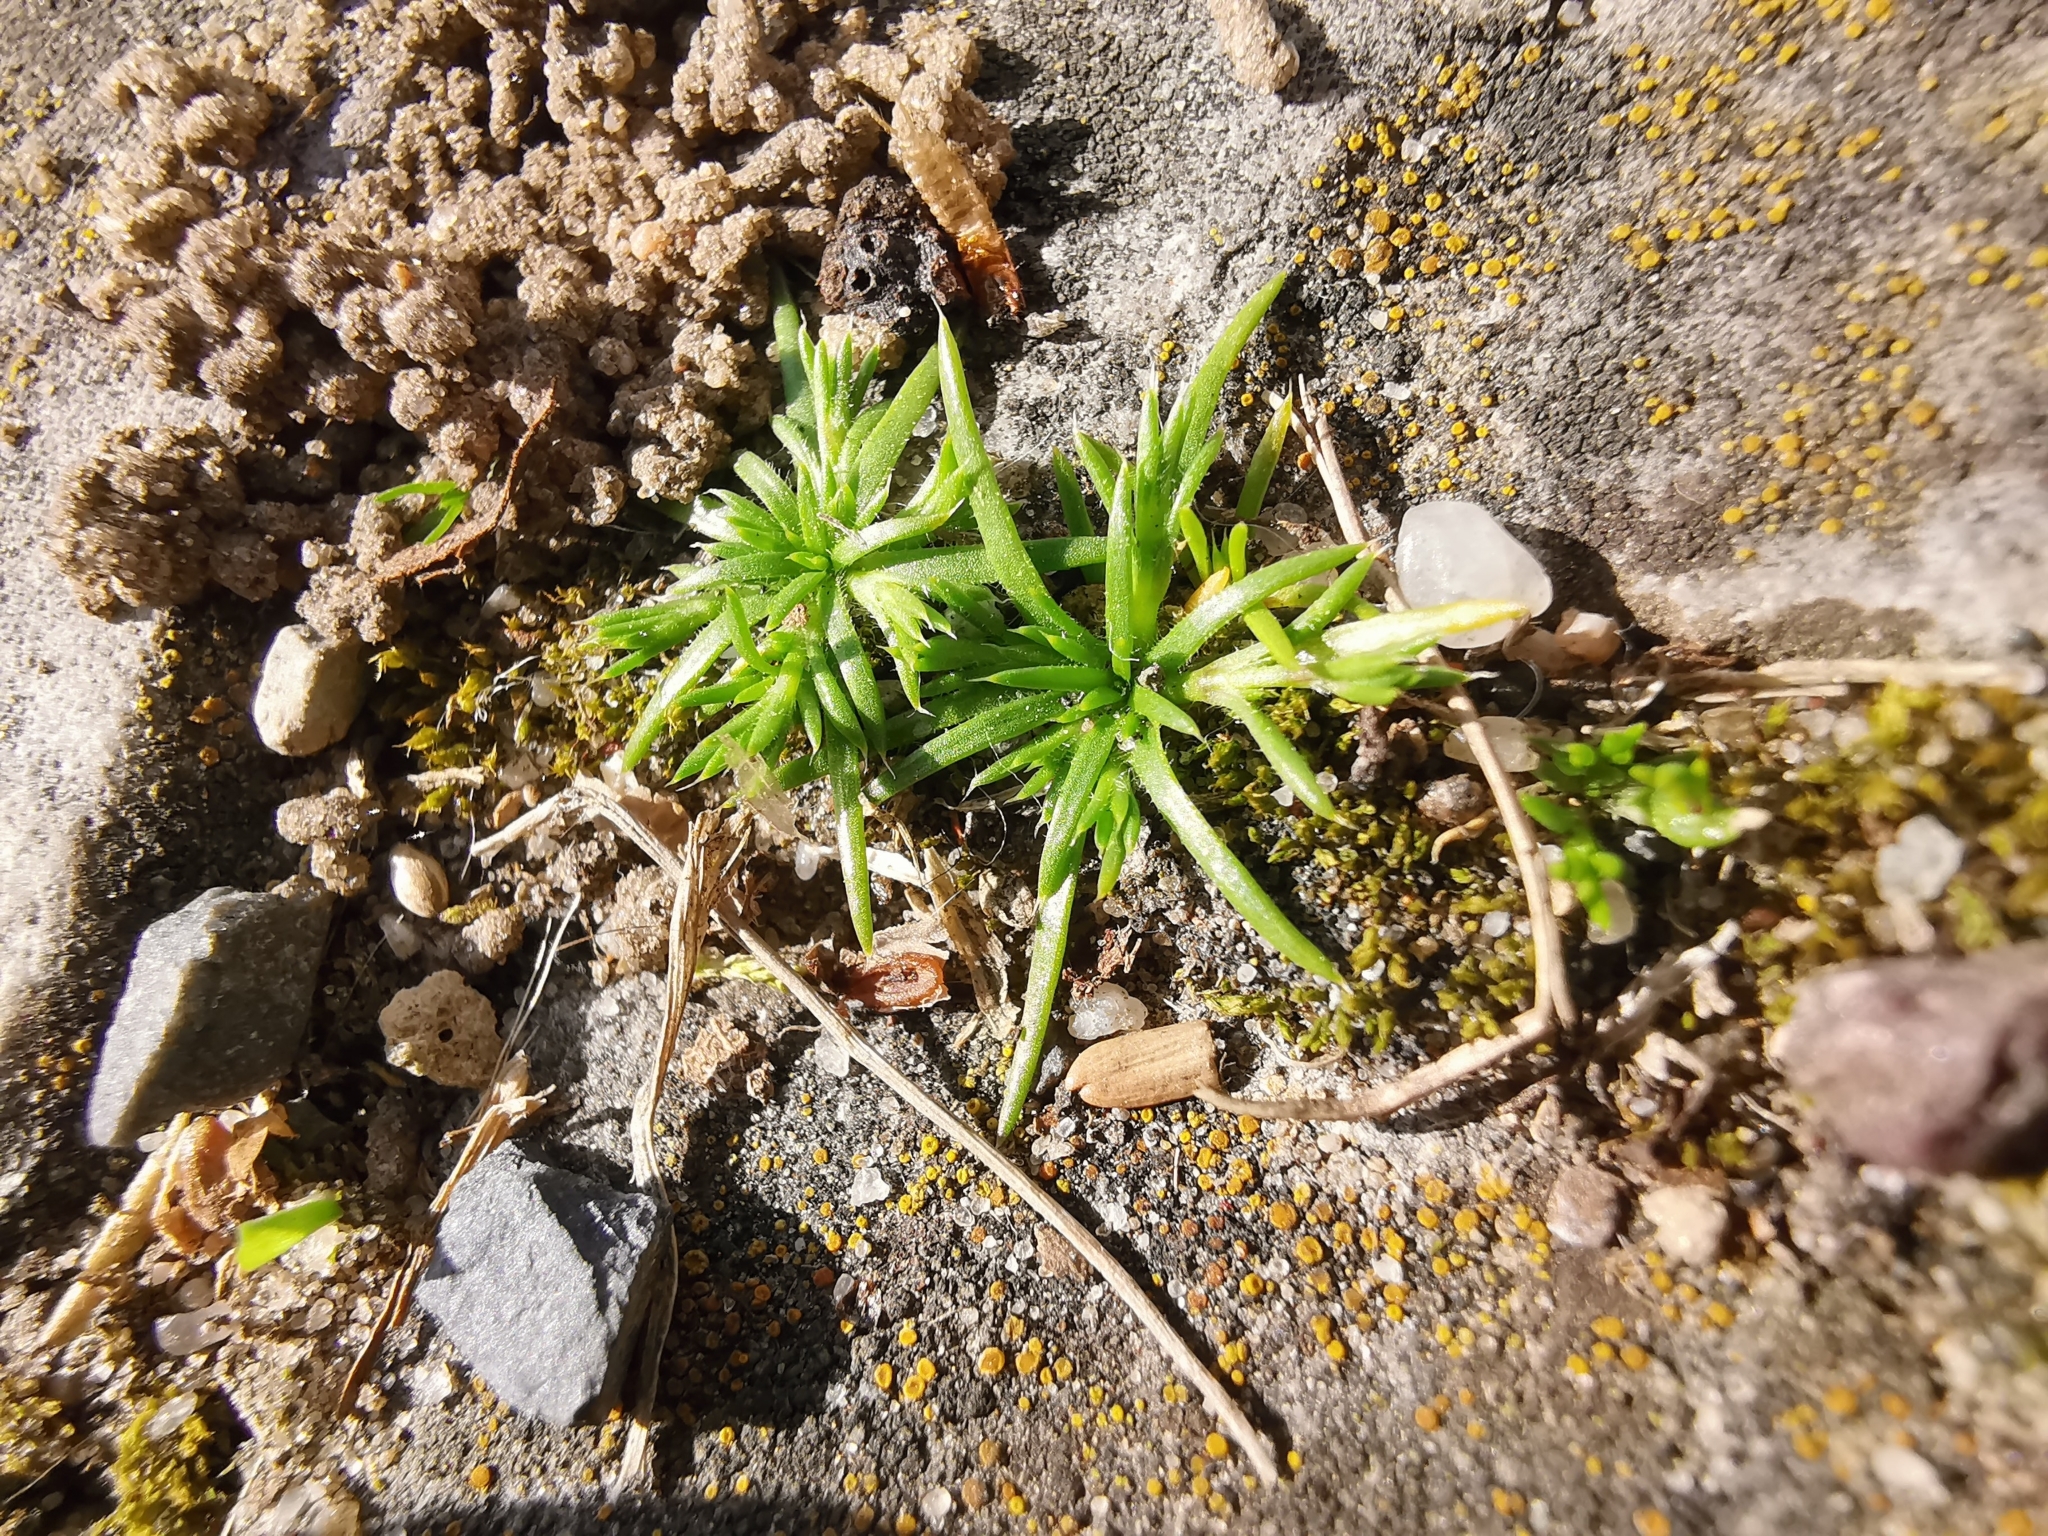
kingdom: Plantae
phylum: Tracheophyta
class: Magnoliopsida
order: Caryophyllales
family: Caryophyllaceae
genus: Sagina
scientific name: Sagina procumbens
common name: Procumbent pearlwort
